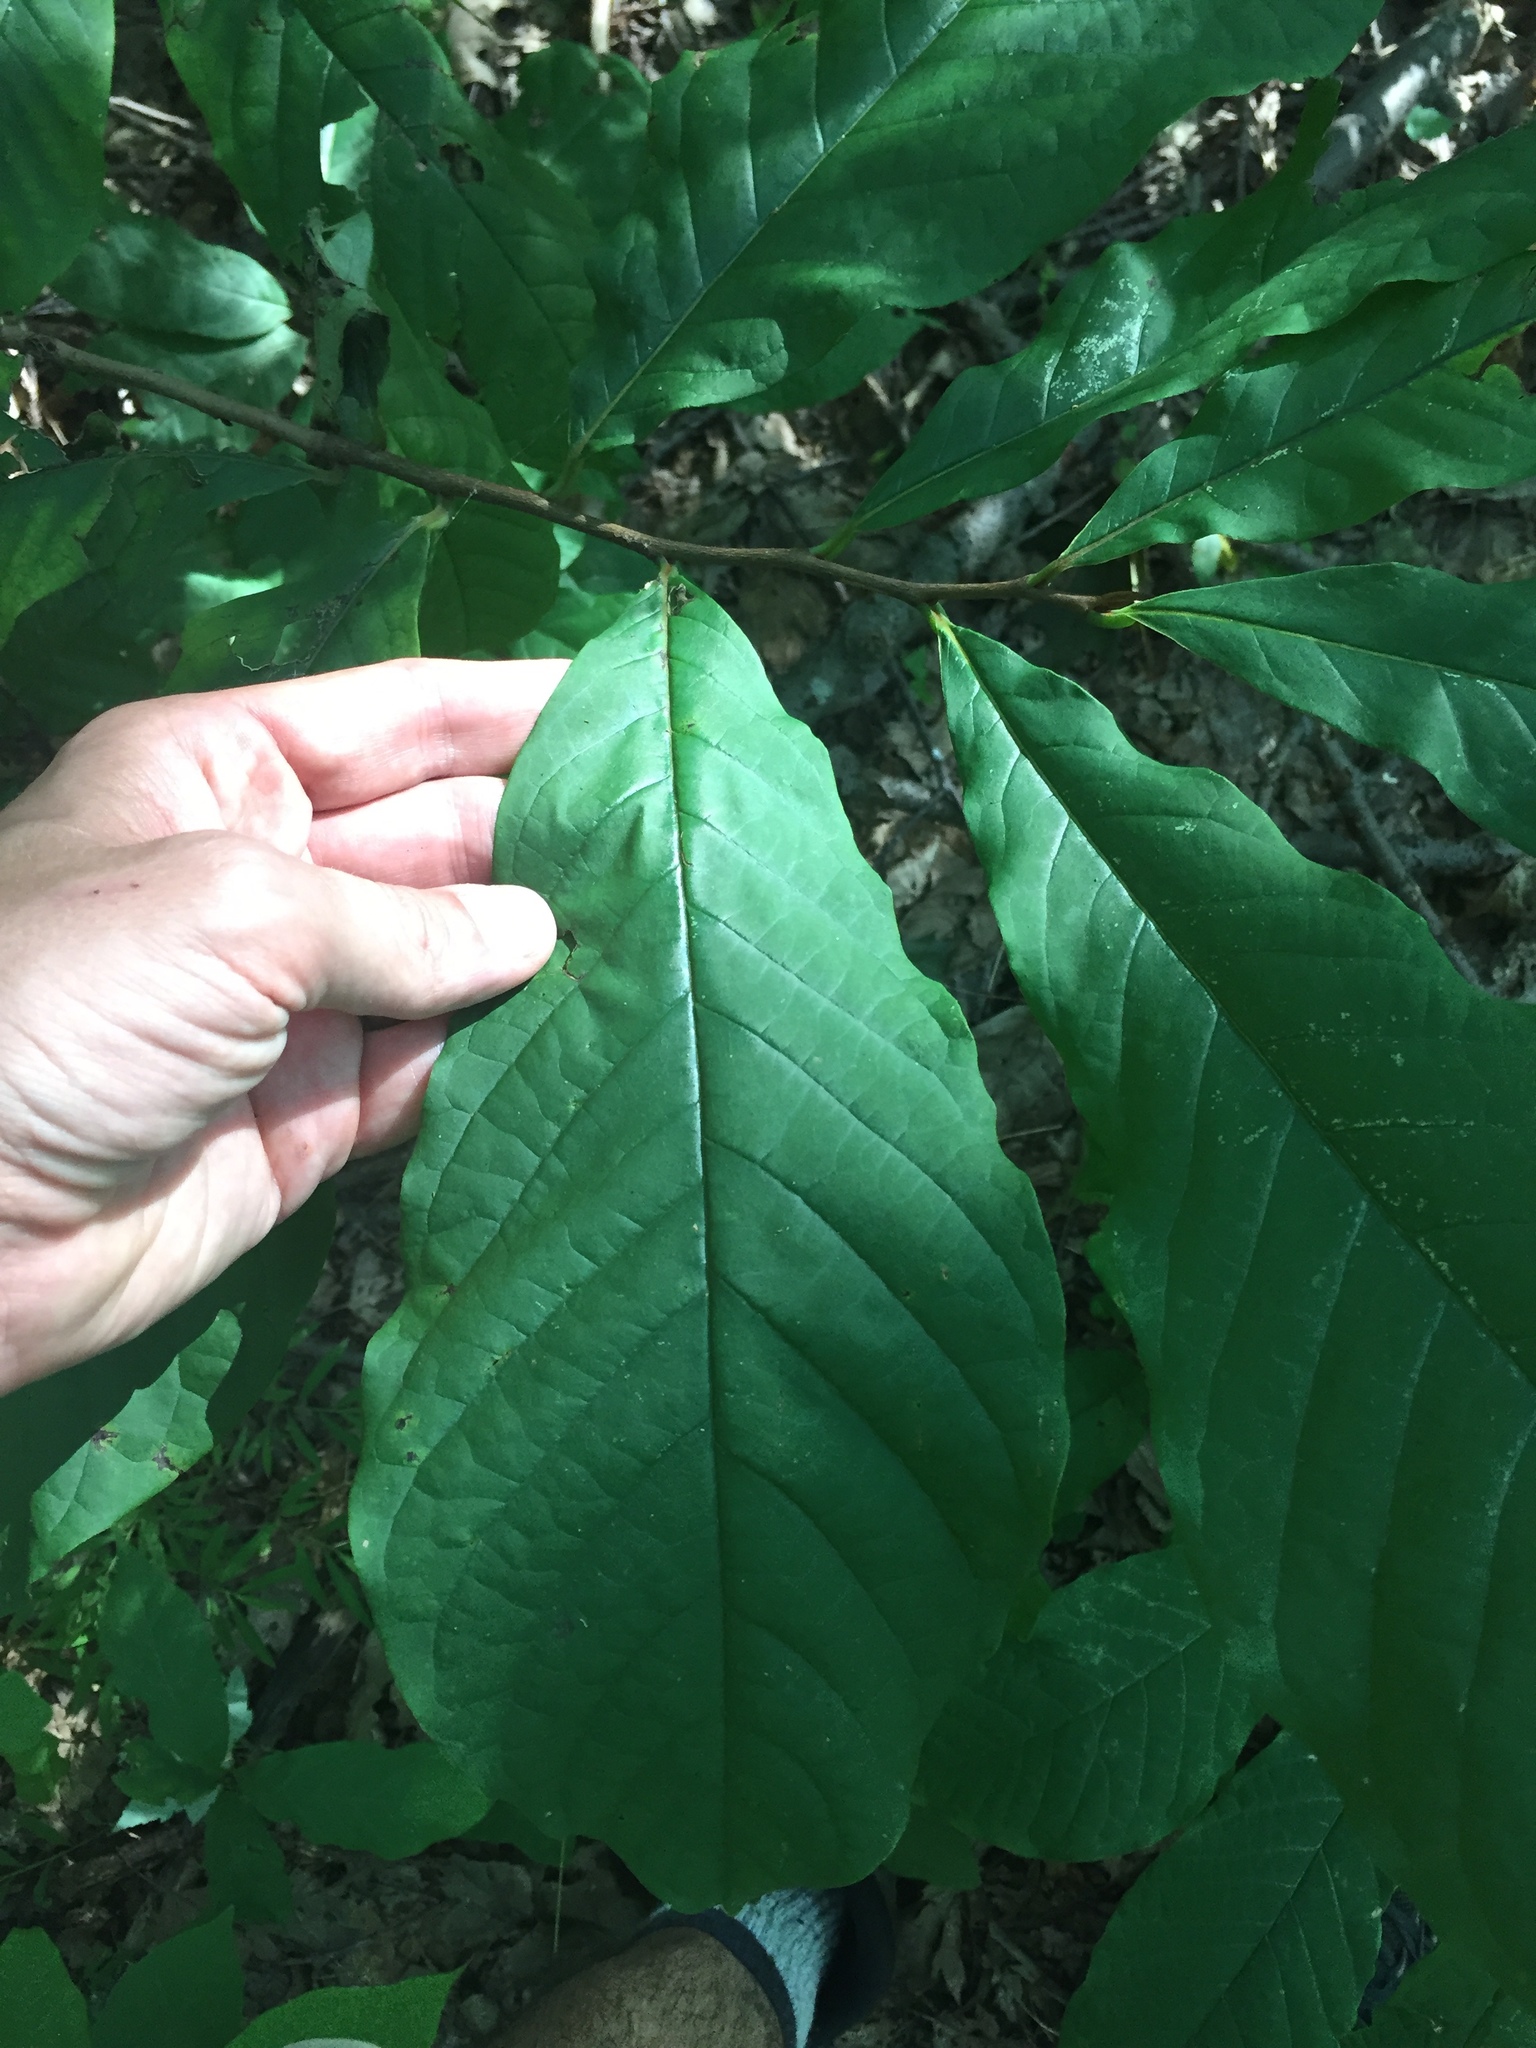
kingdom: Plantae
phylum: Tracheophyta
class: Magnoliopsida
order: Magnoliales
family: Annonaceae
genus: Asimina
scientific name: Asimina triloba
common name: Dog-banana
